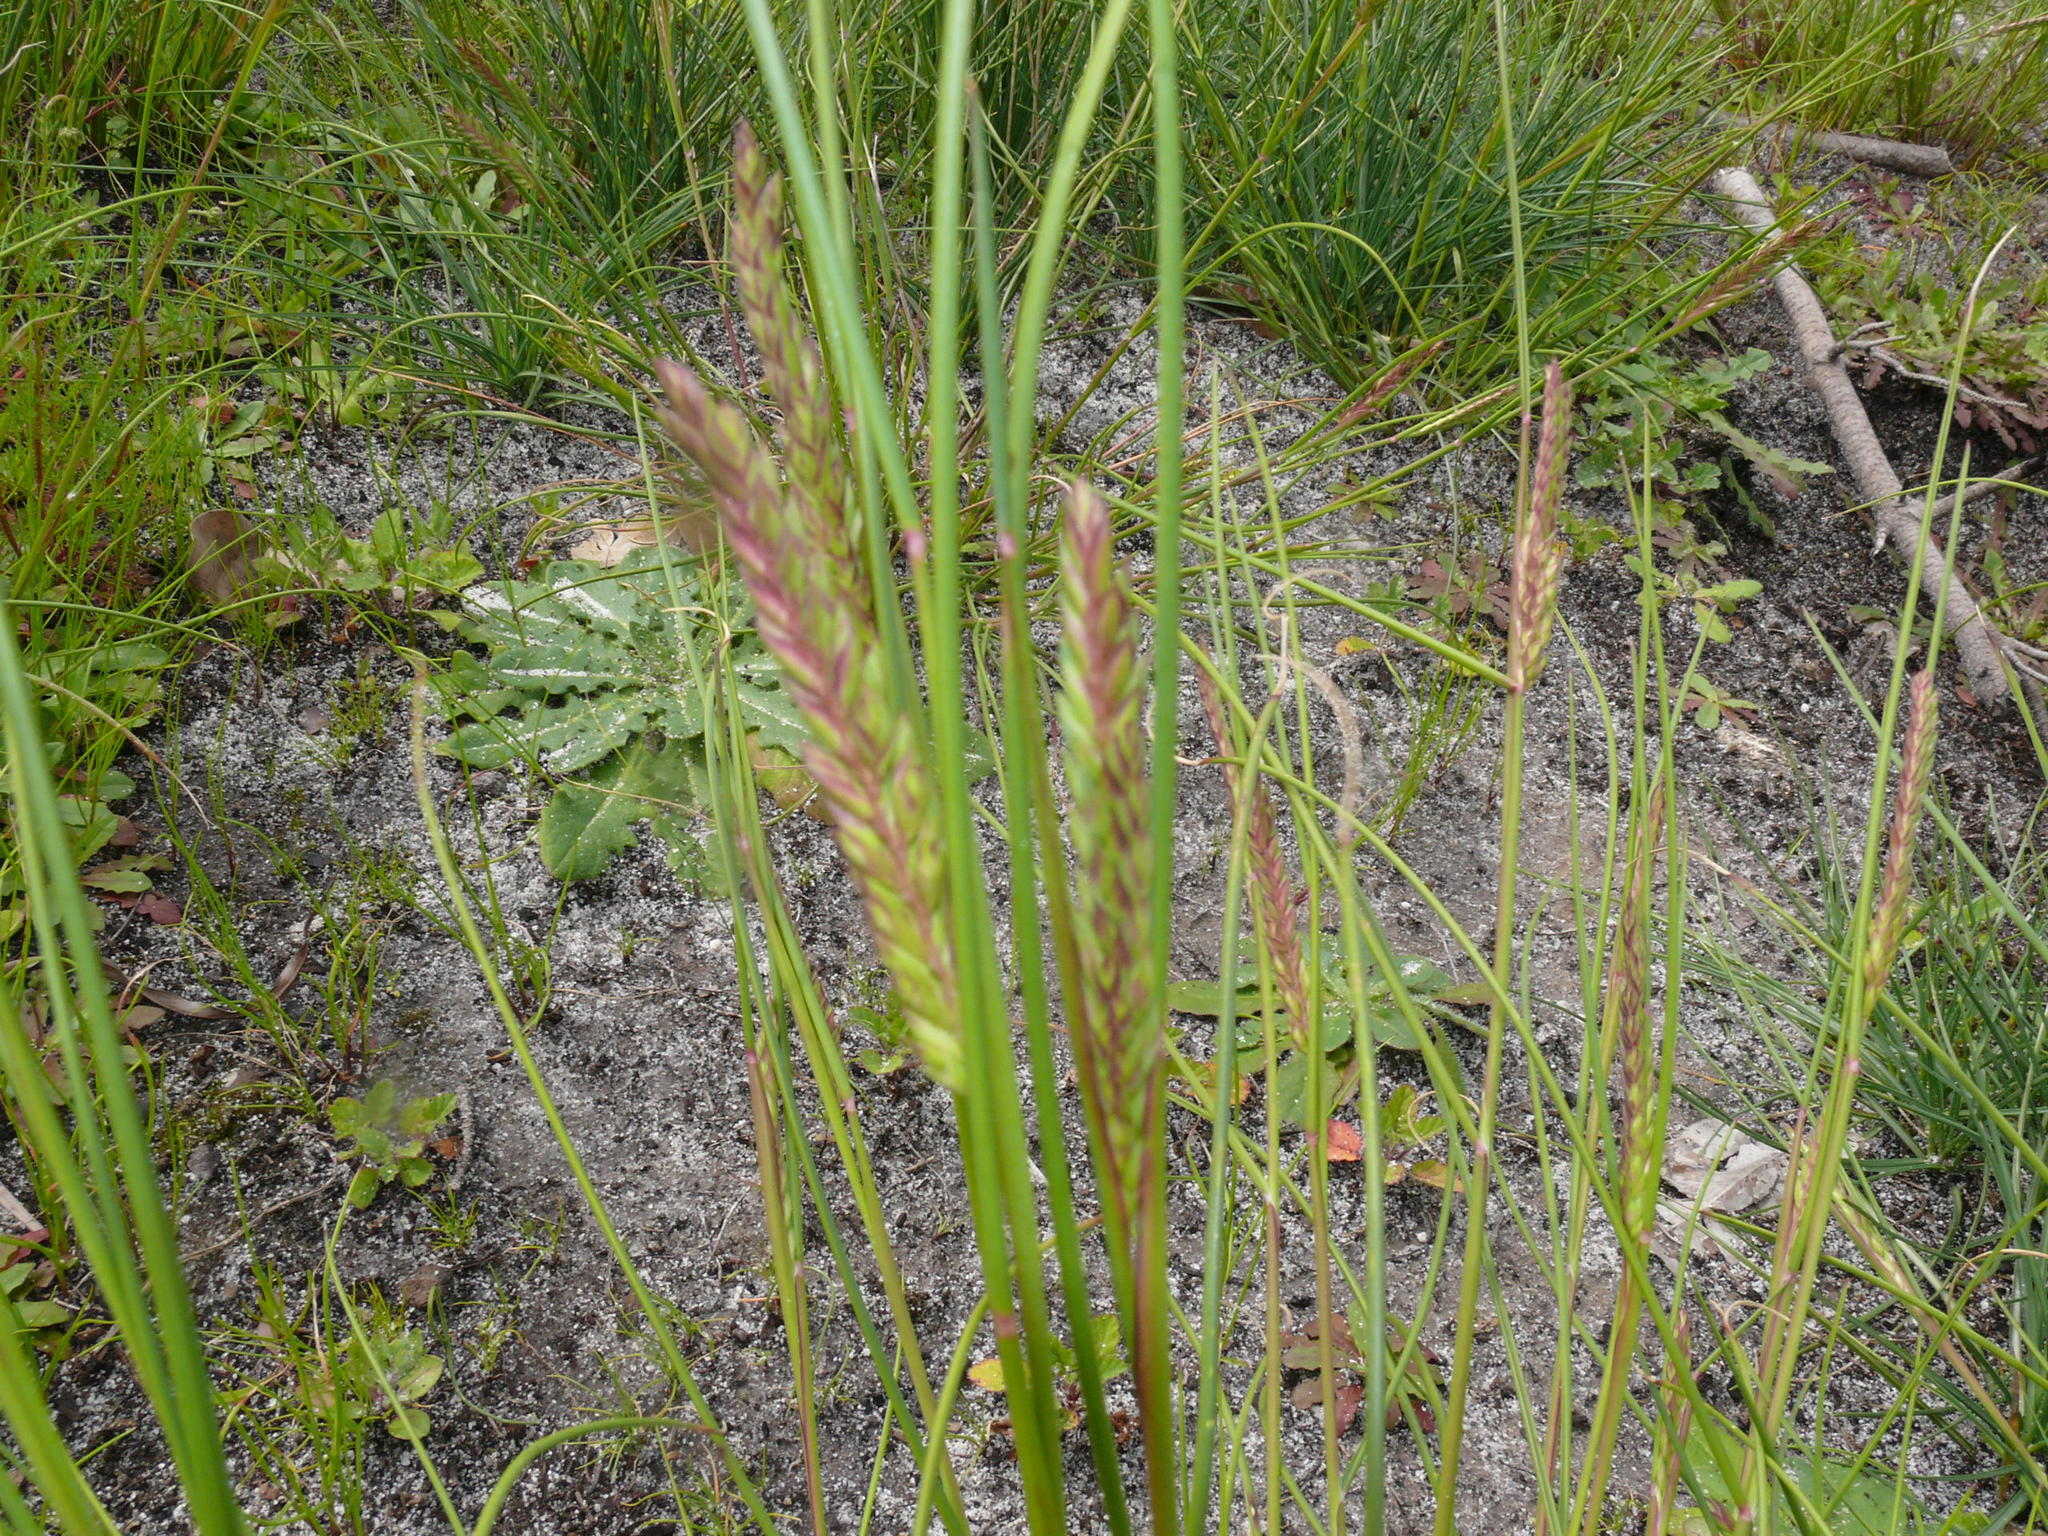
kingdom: Plantae
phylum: Tracheophyta
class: Liliopsida
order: Poales
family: Poaceae
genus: Tribolium
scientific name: Tribolium uniolae
